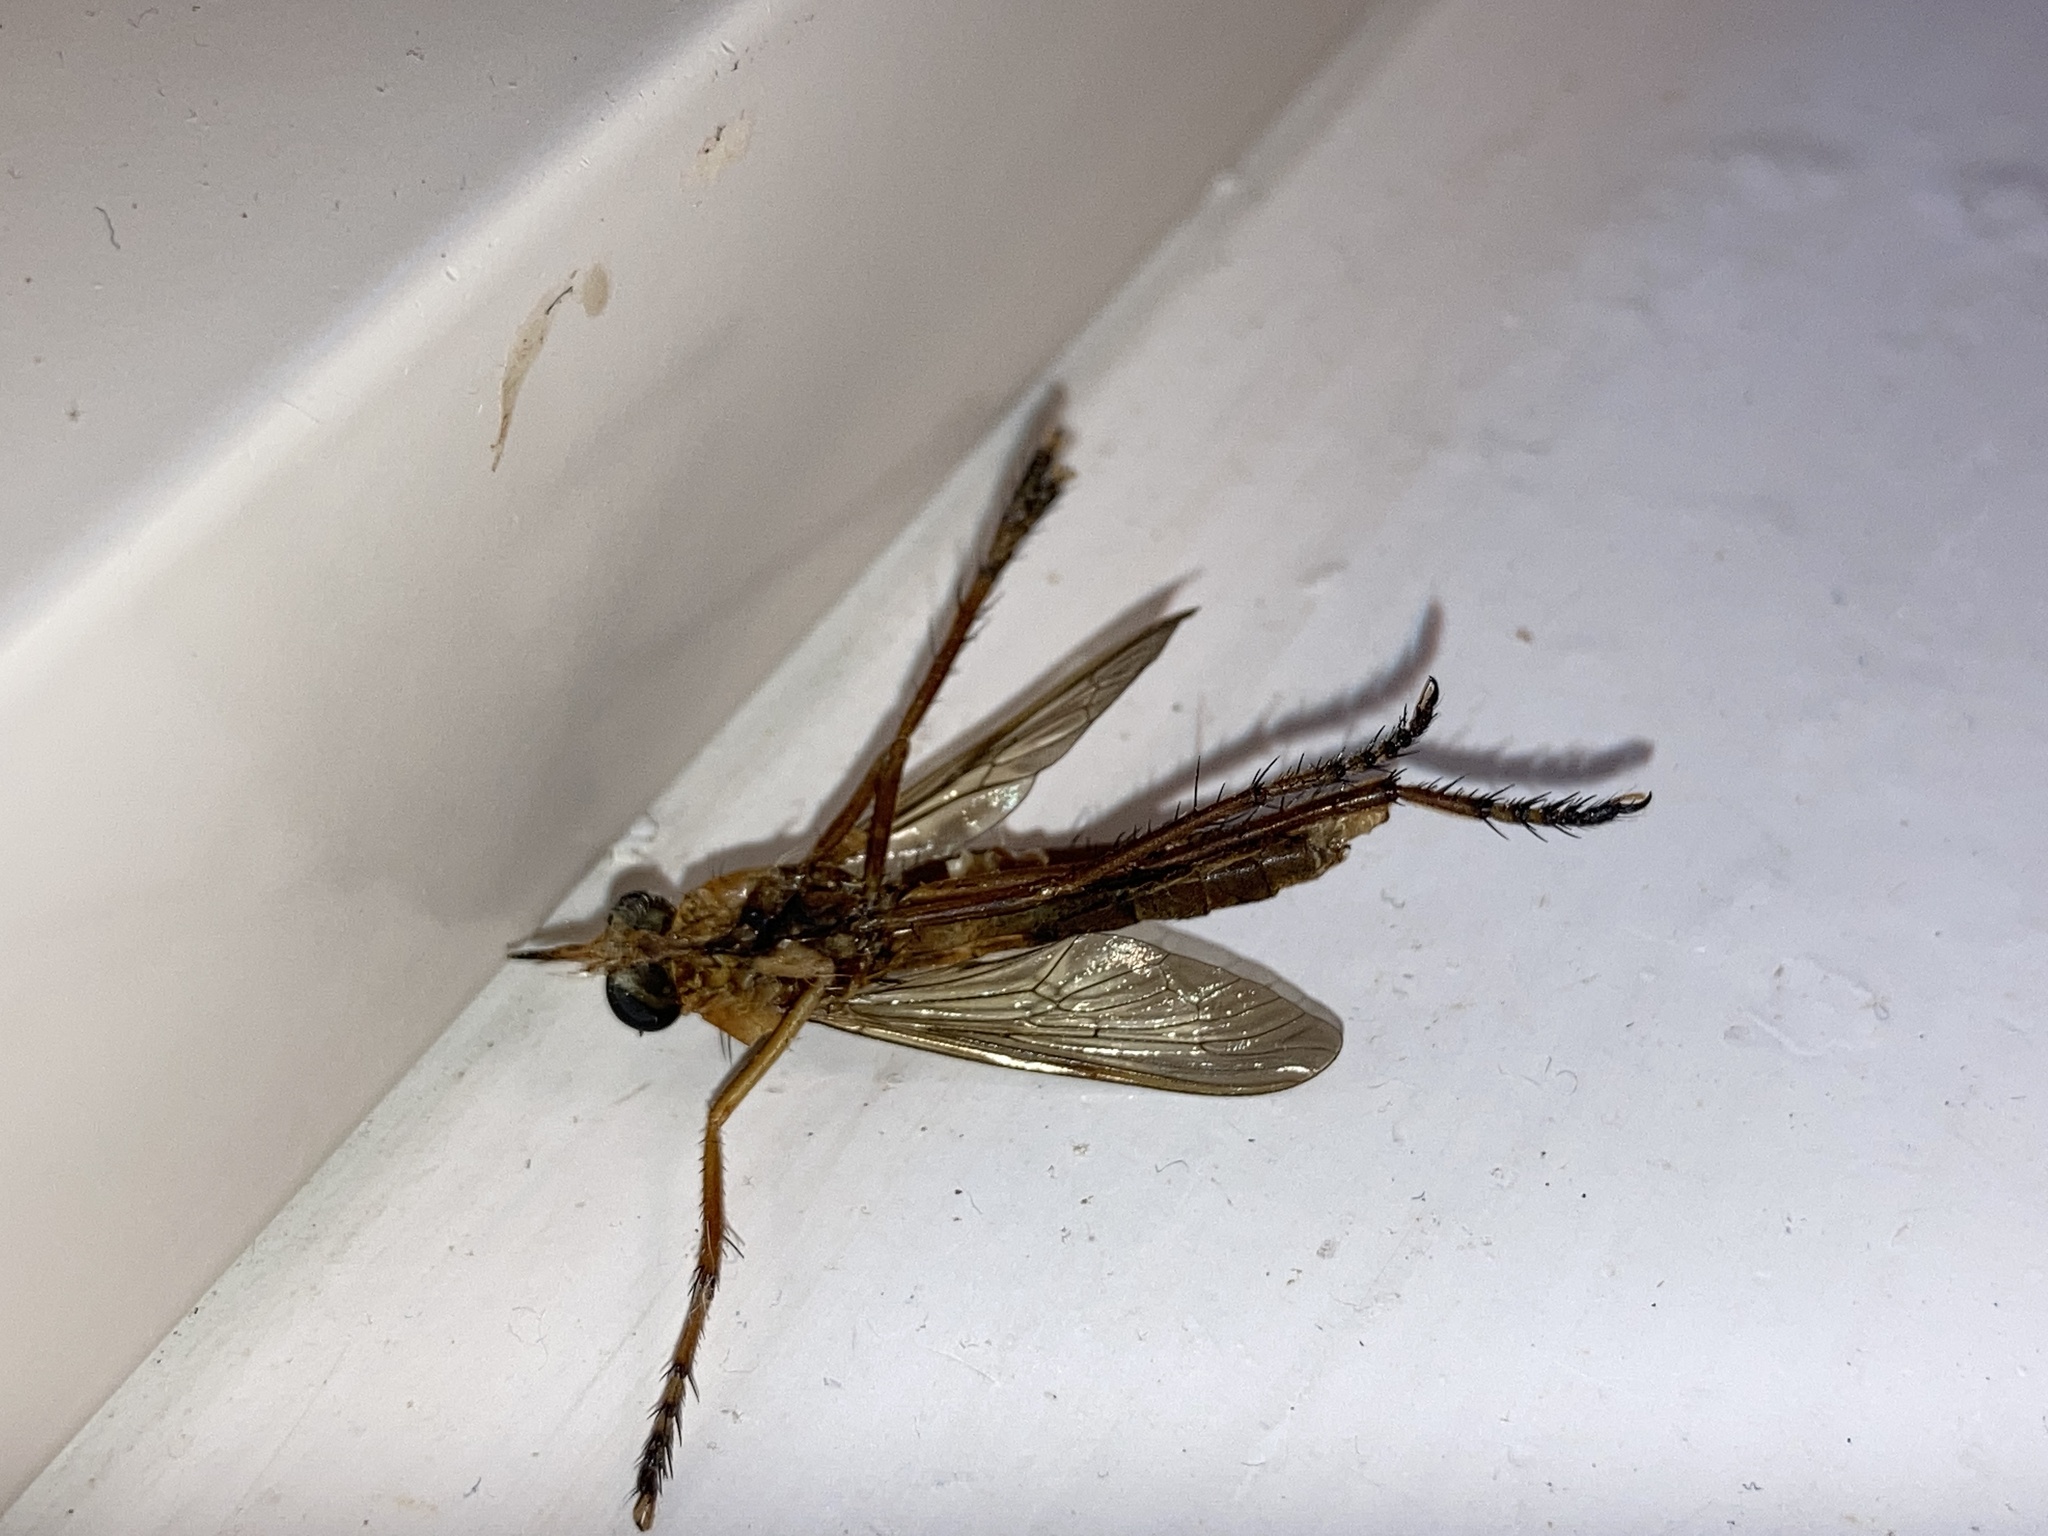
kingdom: Animalia
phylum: Arthropoda
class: Insecta
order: Diptera
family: Asilidae
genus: Diogmites
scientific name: Diogmites neoternatus
